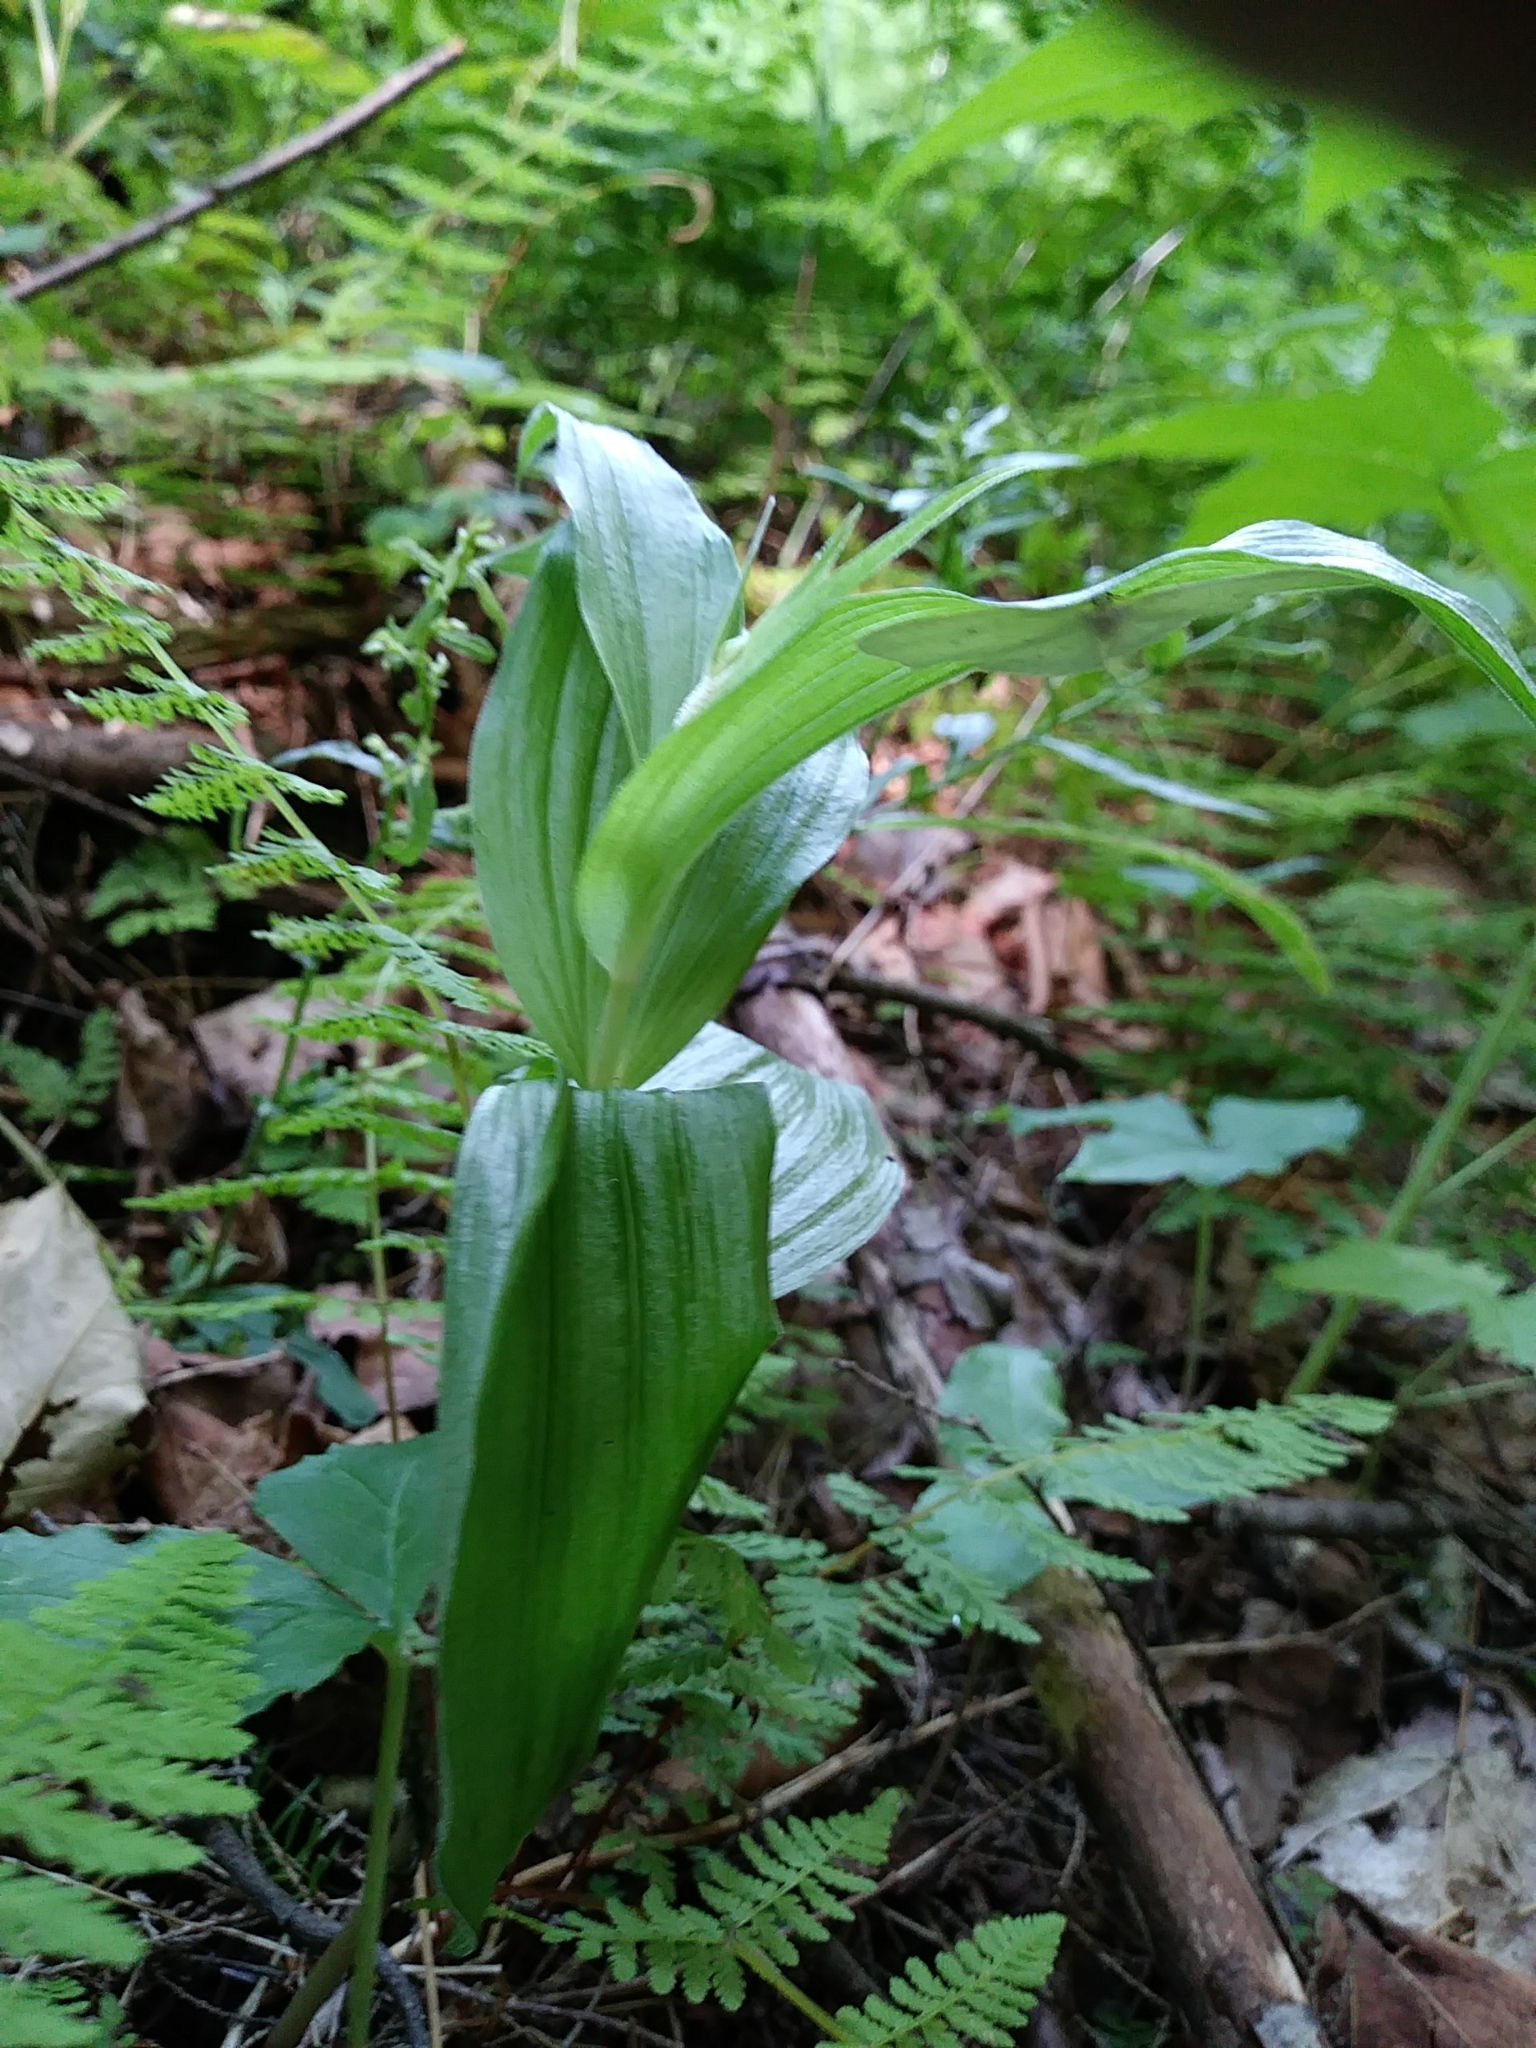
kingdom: Plantae
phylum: Tracheophyta
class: Liliopsida
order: Asparagales
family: Orchidaceae
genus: Epipactis
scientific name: Epipactis helleborine
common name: Broad-leaved helleborine
